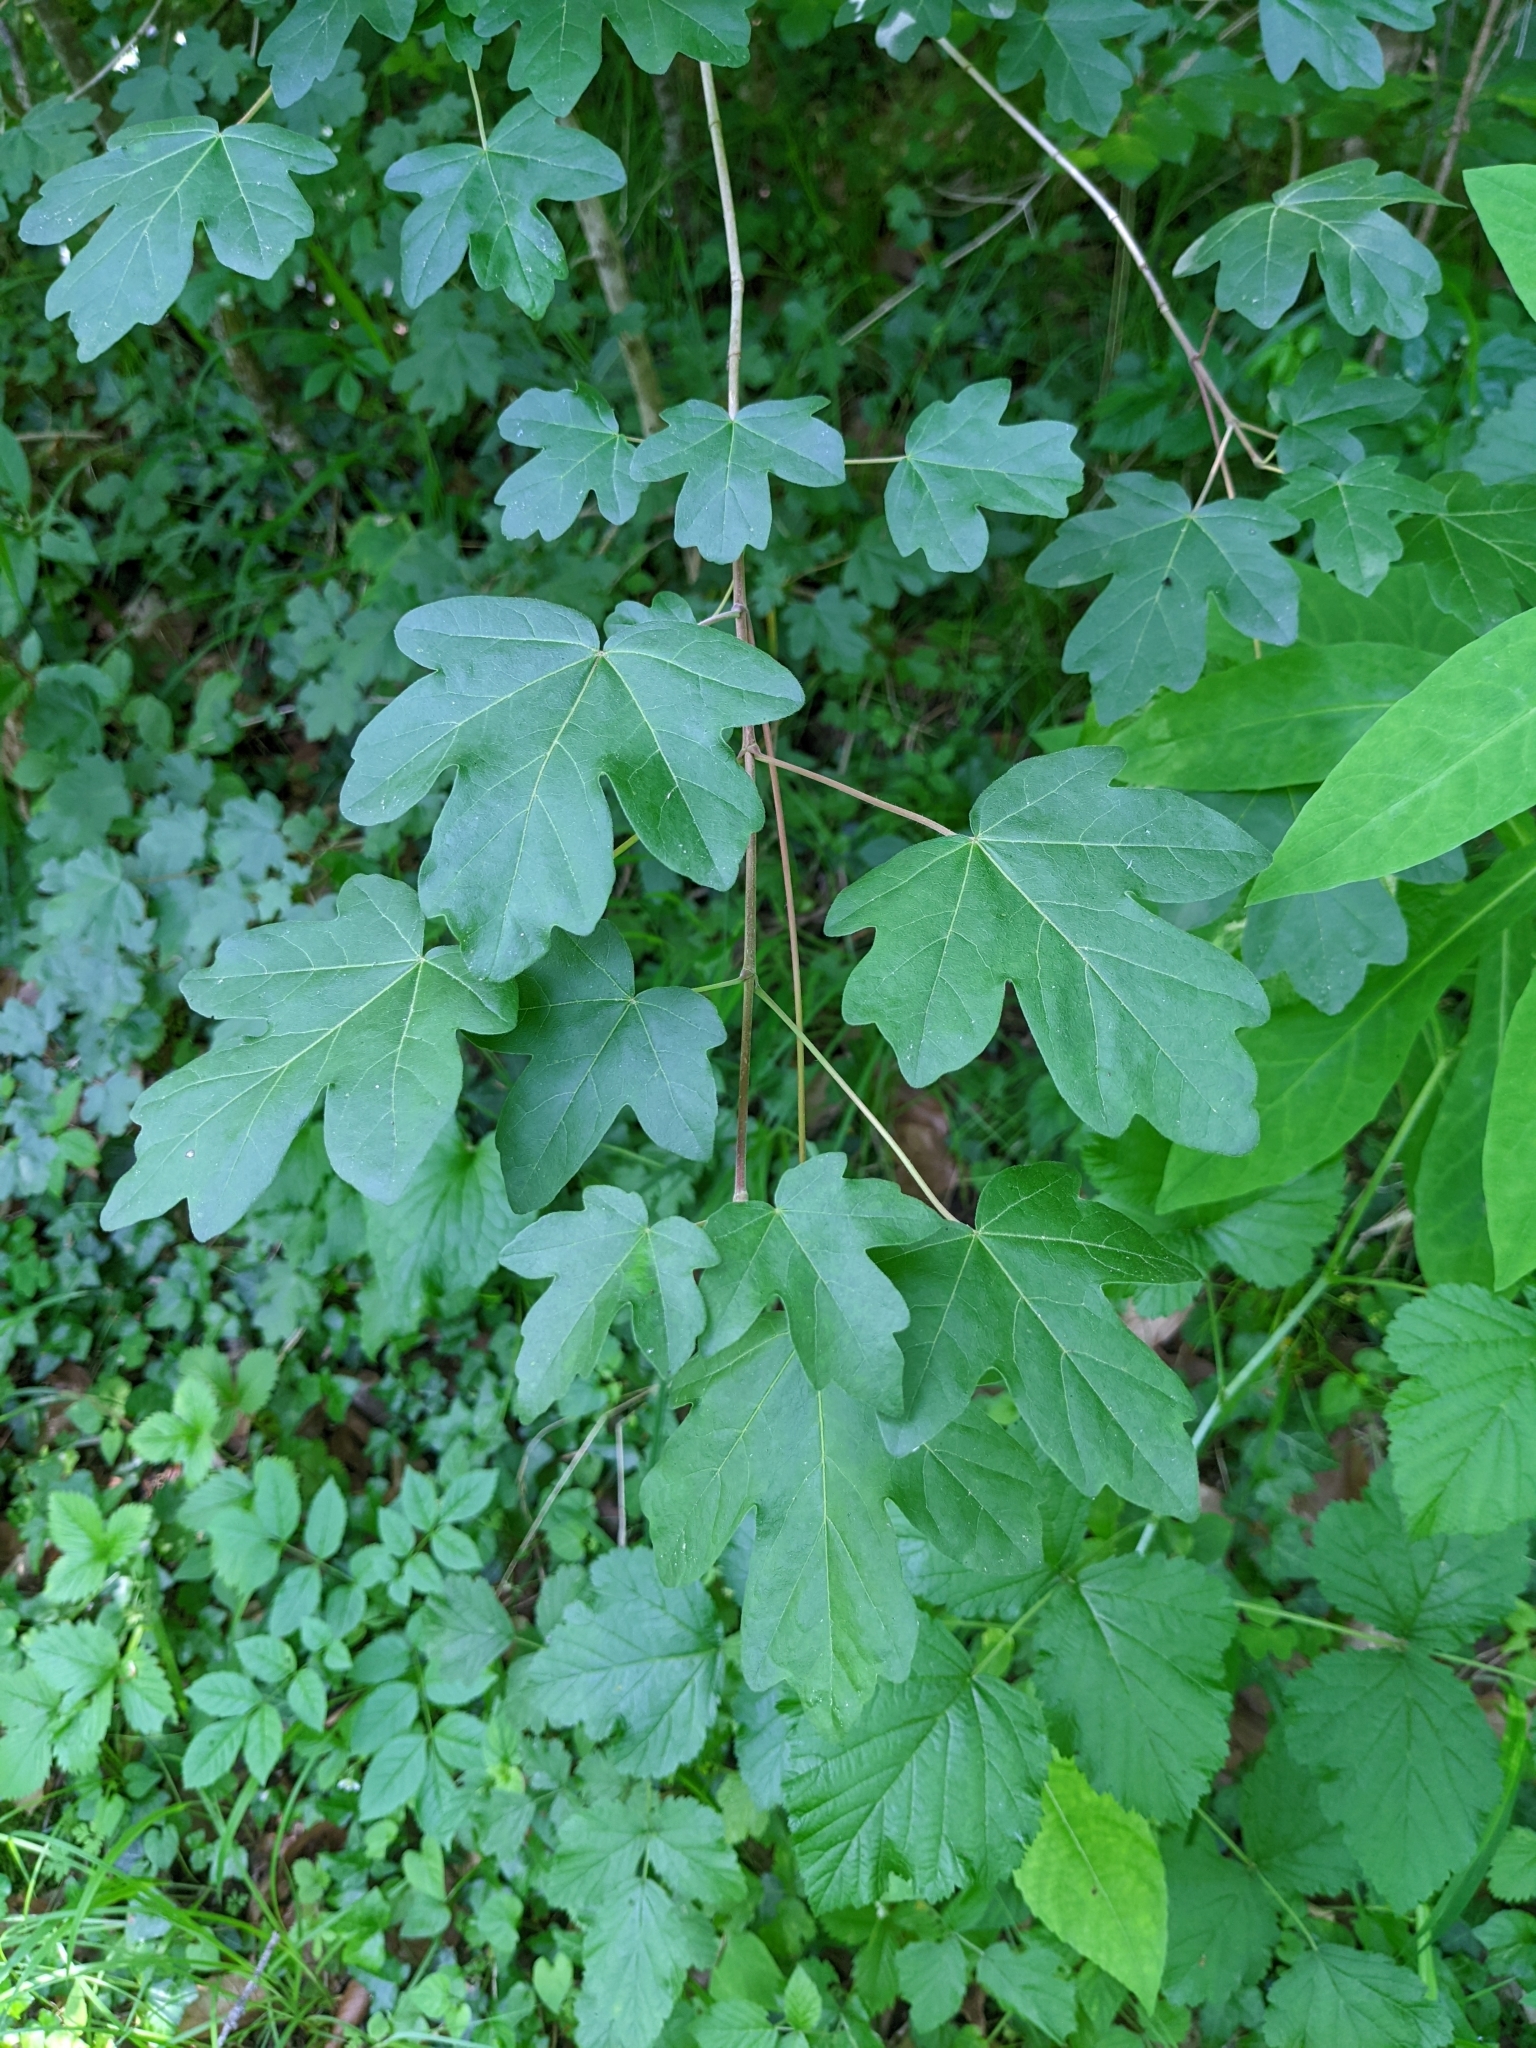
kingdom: Plantae
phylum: Tracheophyta
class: Magnoliopsida
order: Sapindales
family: Sapindaceae
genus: Acer
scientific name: Acer campestre
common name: Field maple
